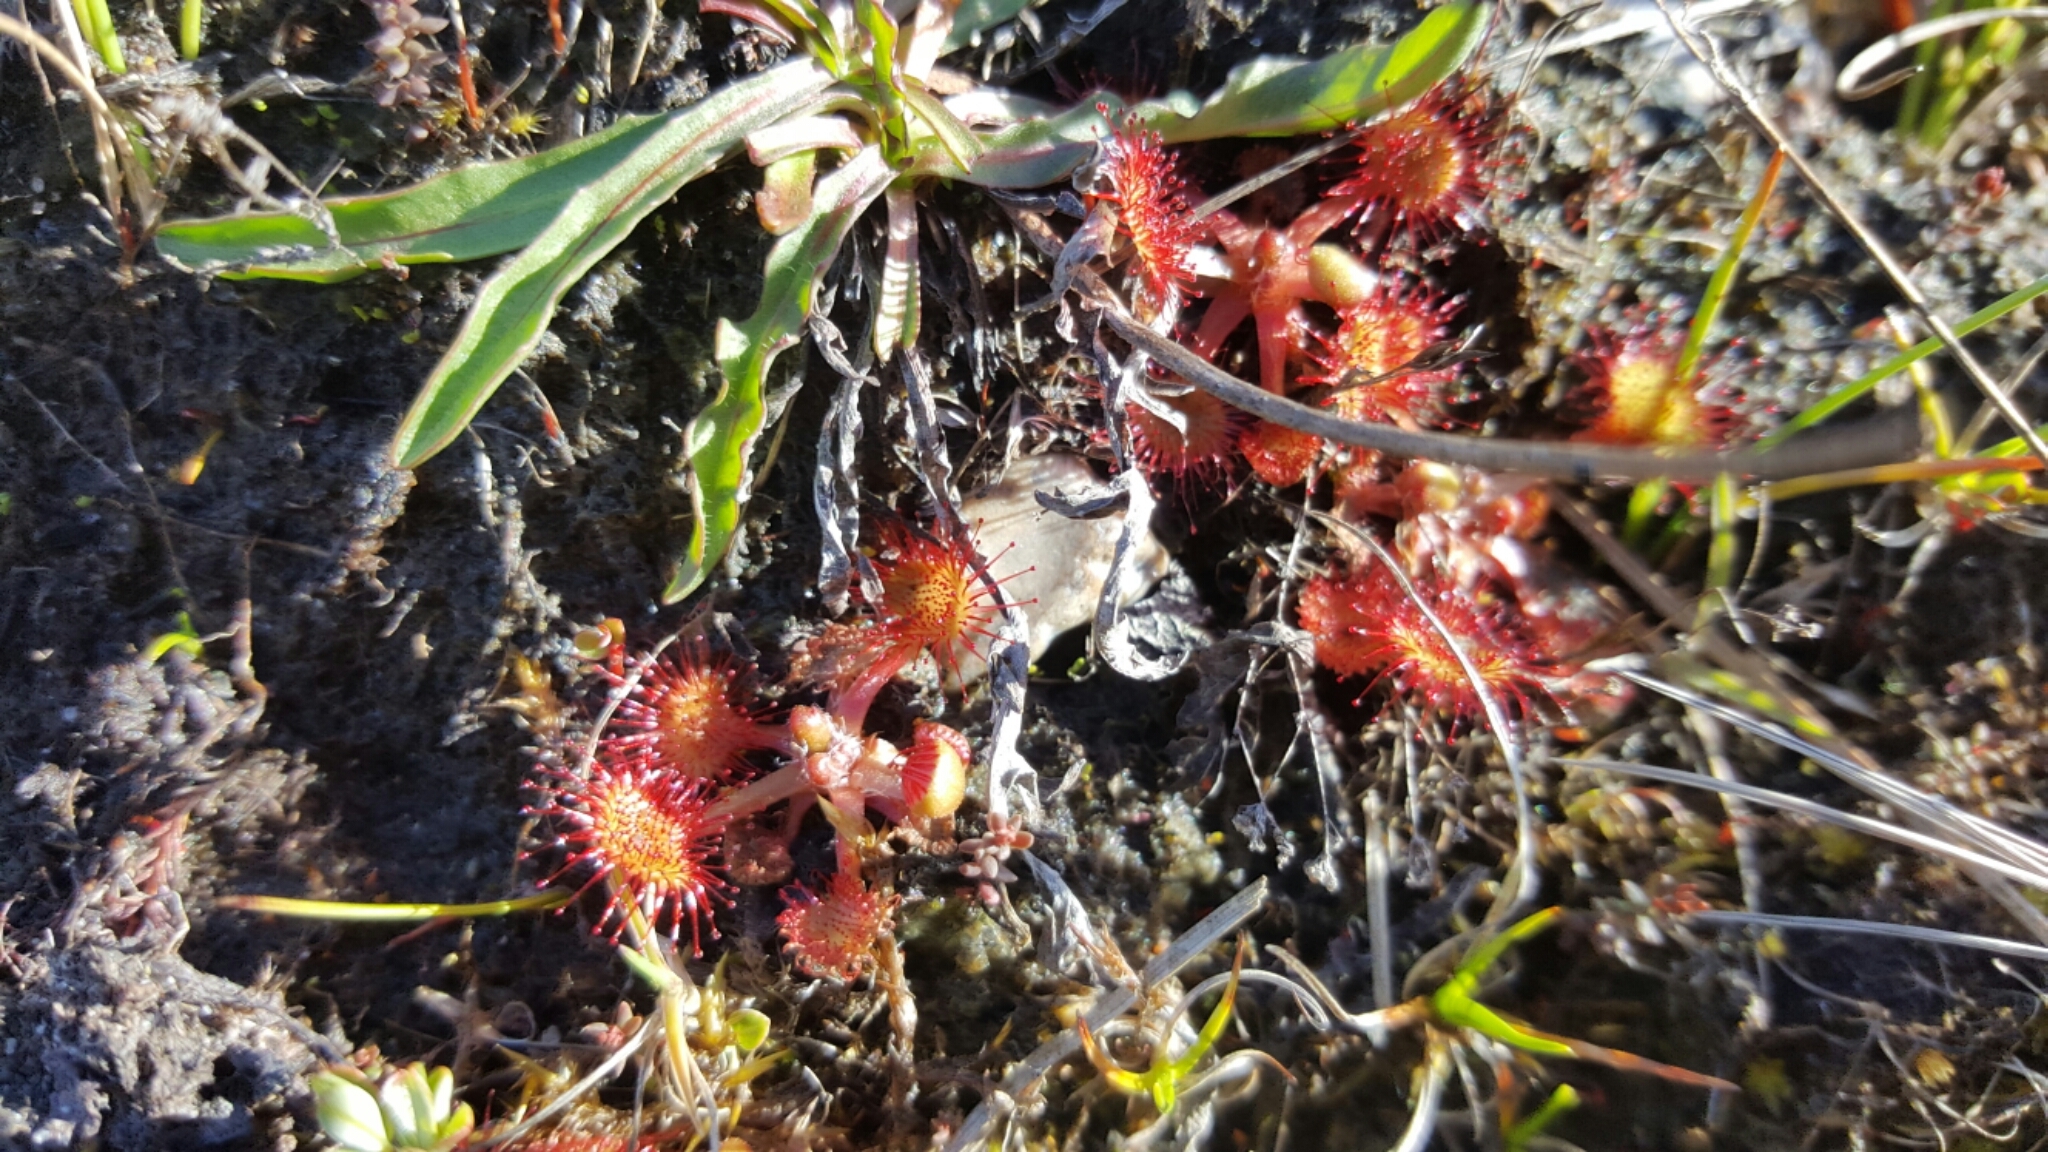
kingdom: Plantae
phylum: Tracheophyta
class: Magnoliopsida
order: Caryophyllales
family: Droseraceae
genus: Drosera
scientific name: Drosera rotundifolia
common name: Round-leaved sundew
